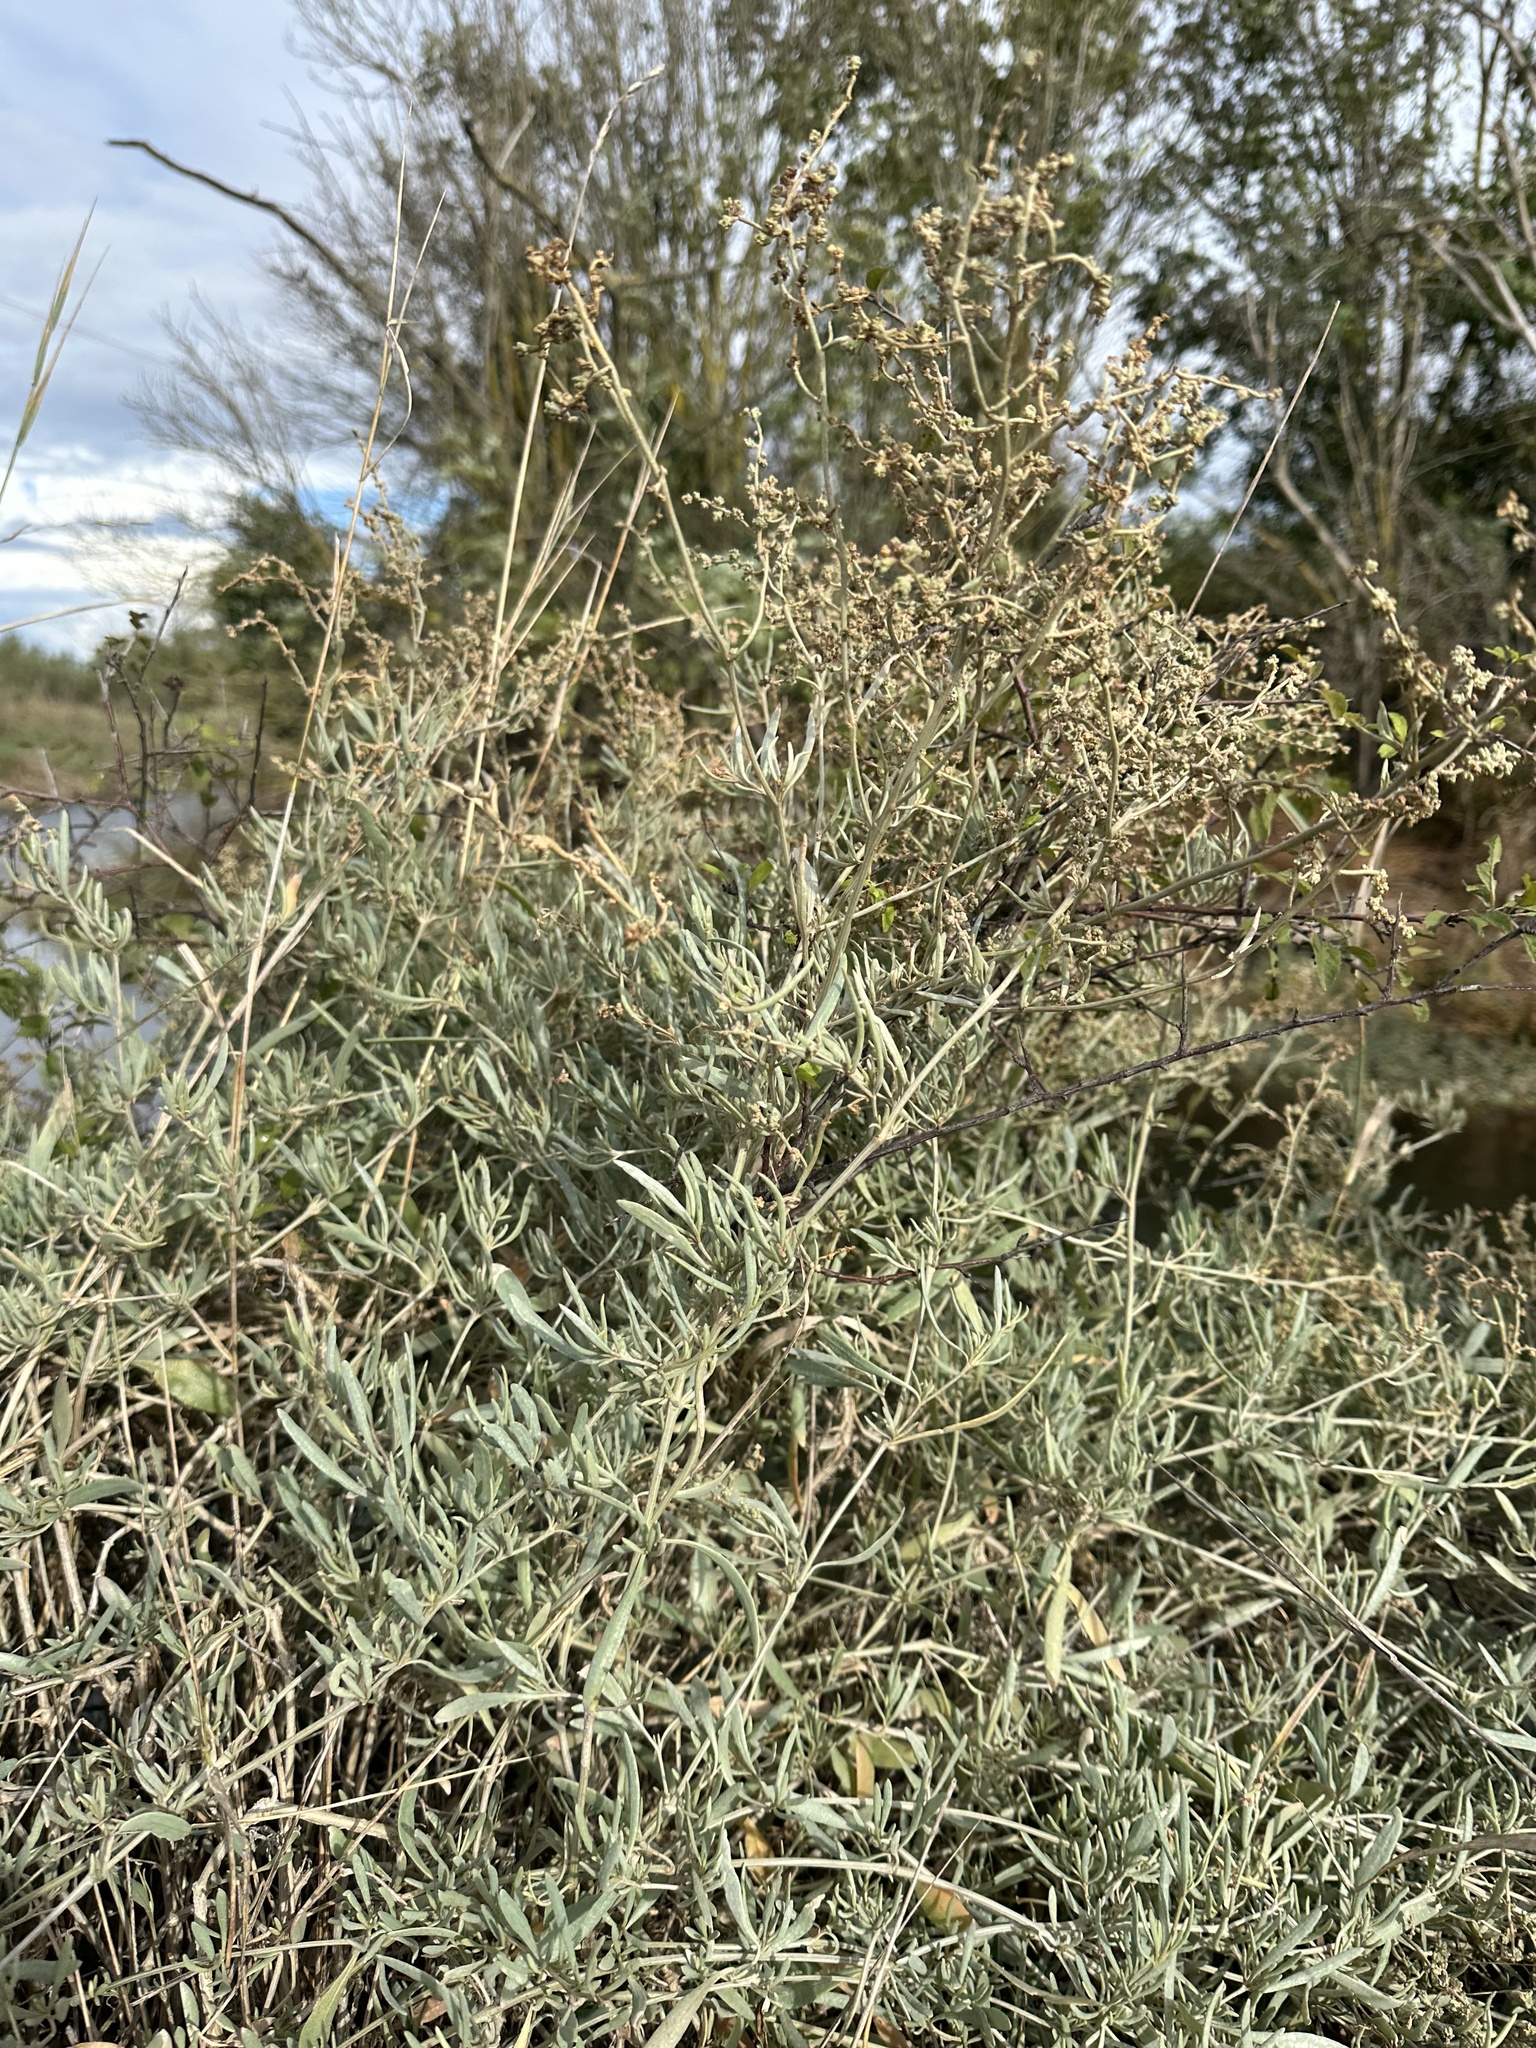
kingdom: Plantae
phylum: Tracheophyta
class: Magnoliopsida
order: Caryophyllales
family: Amaranthaceae
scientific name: Amaranthaceae
